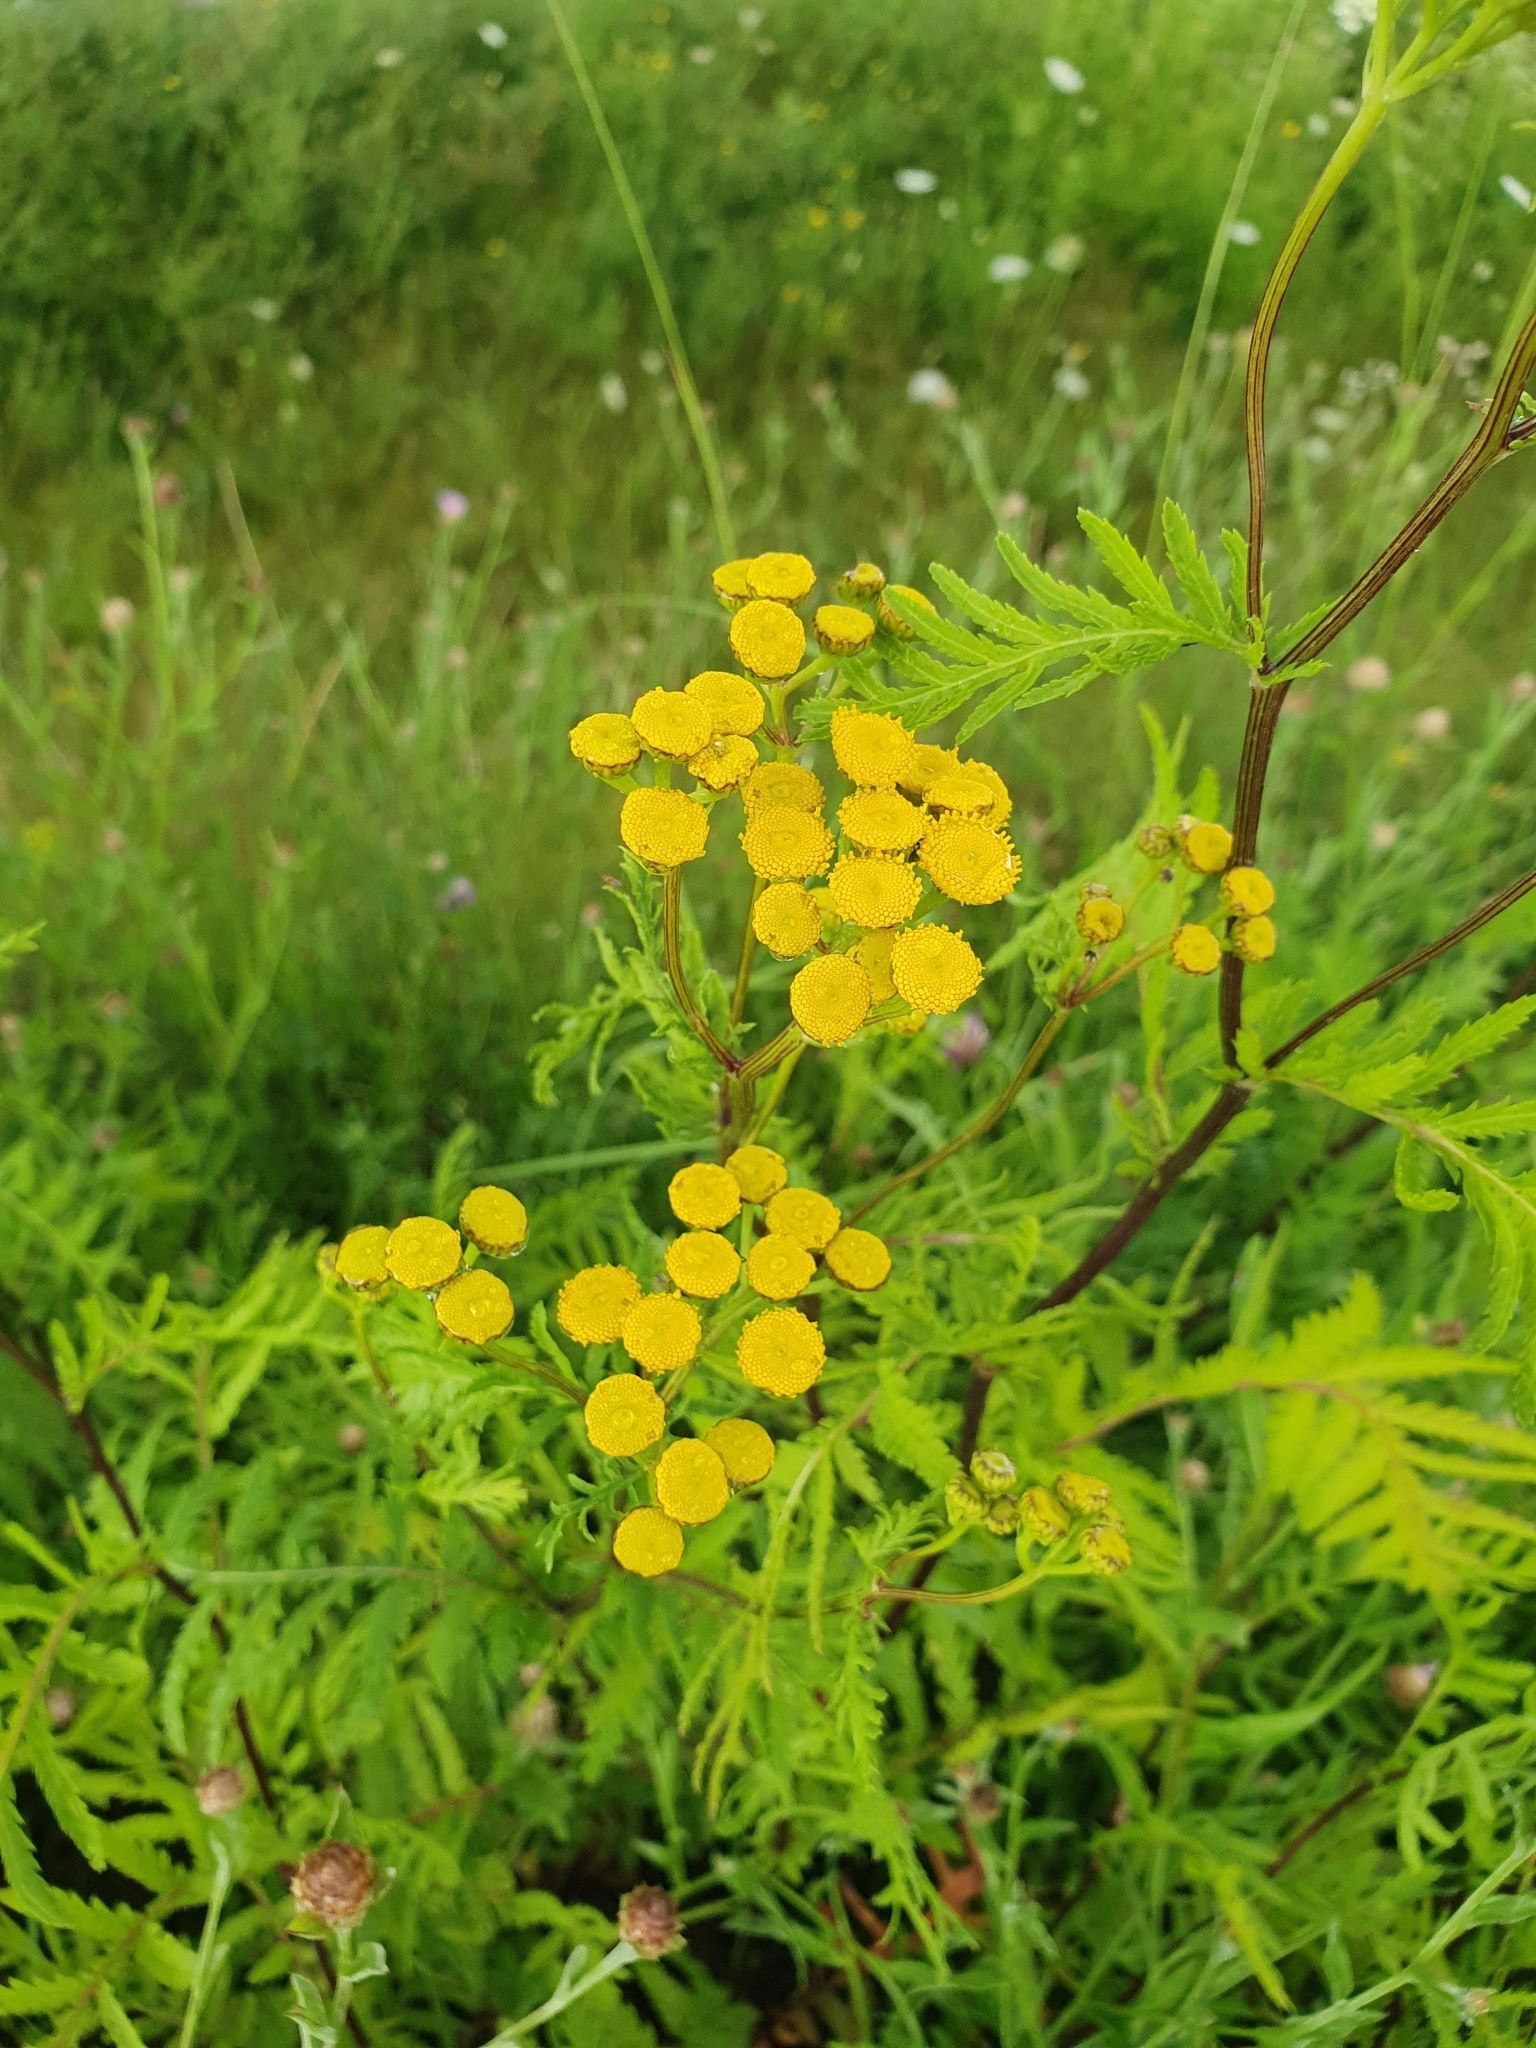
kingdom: Plantae
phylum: Tracheophyta
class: Magnoliopsida
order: Asterales
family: Asteraceae
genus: Tanacetum
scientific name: Tanacetum vulgare
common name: Common tansy
